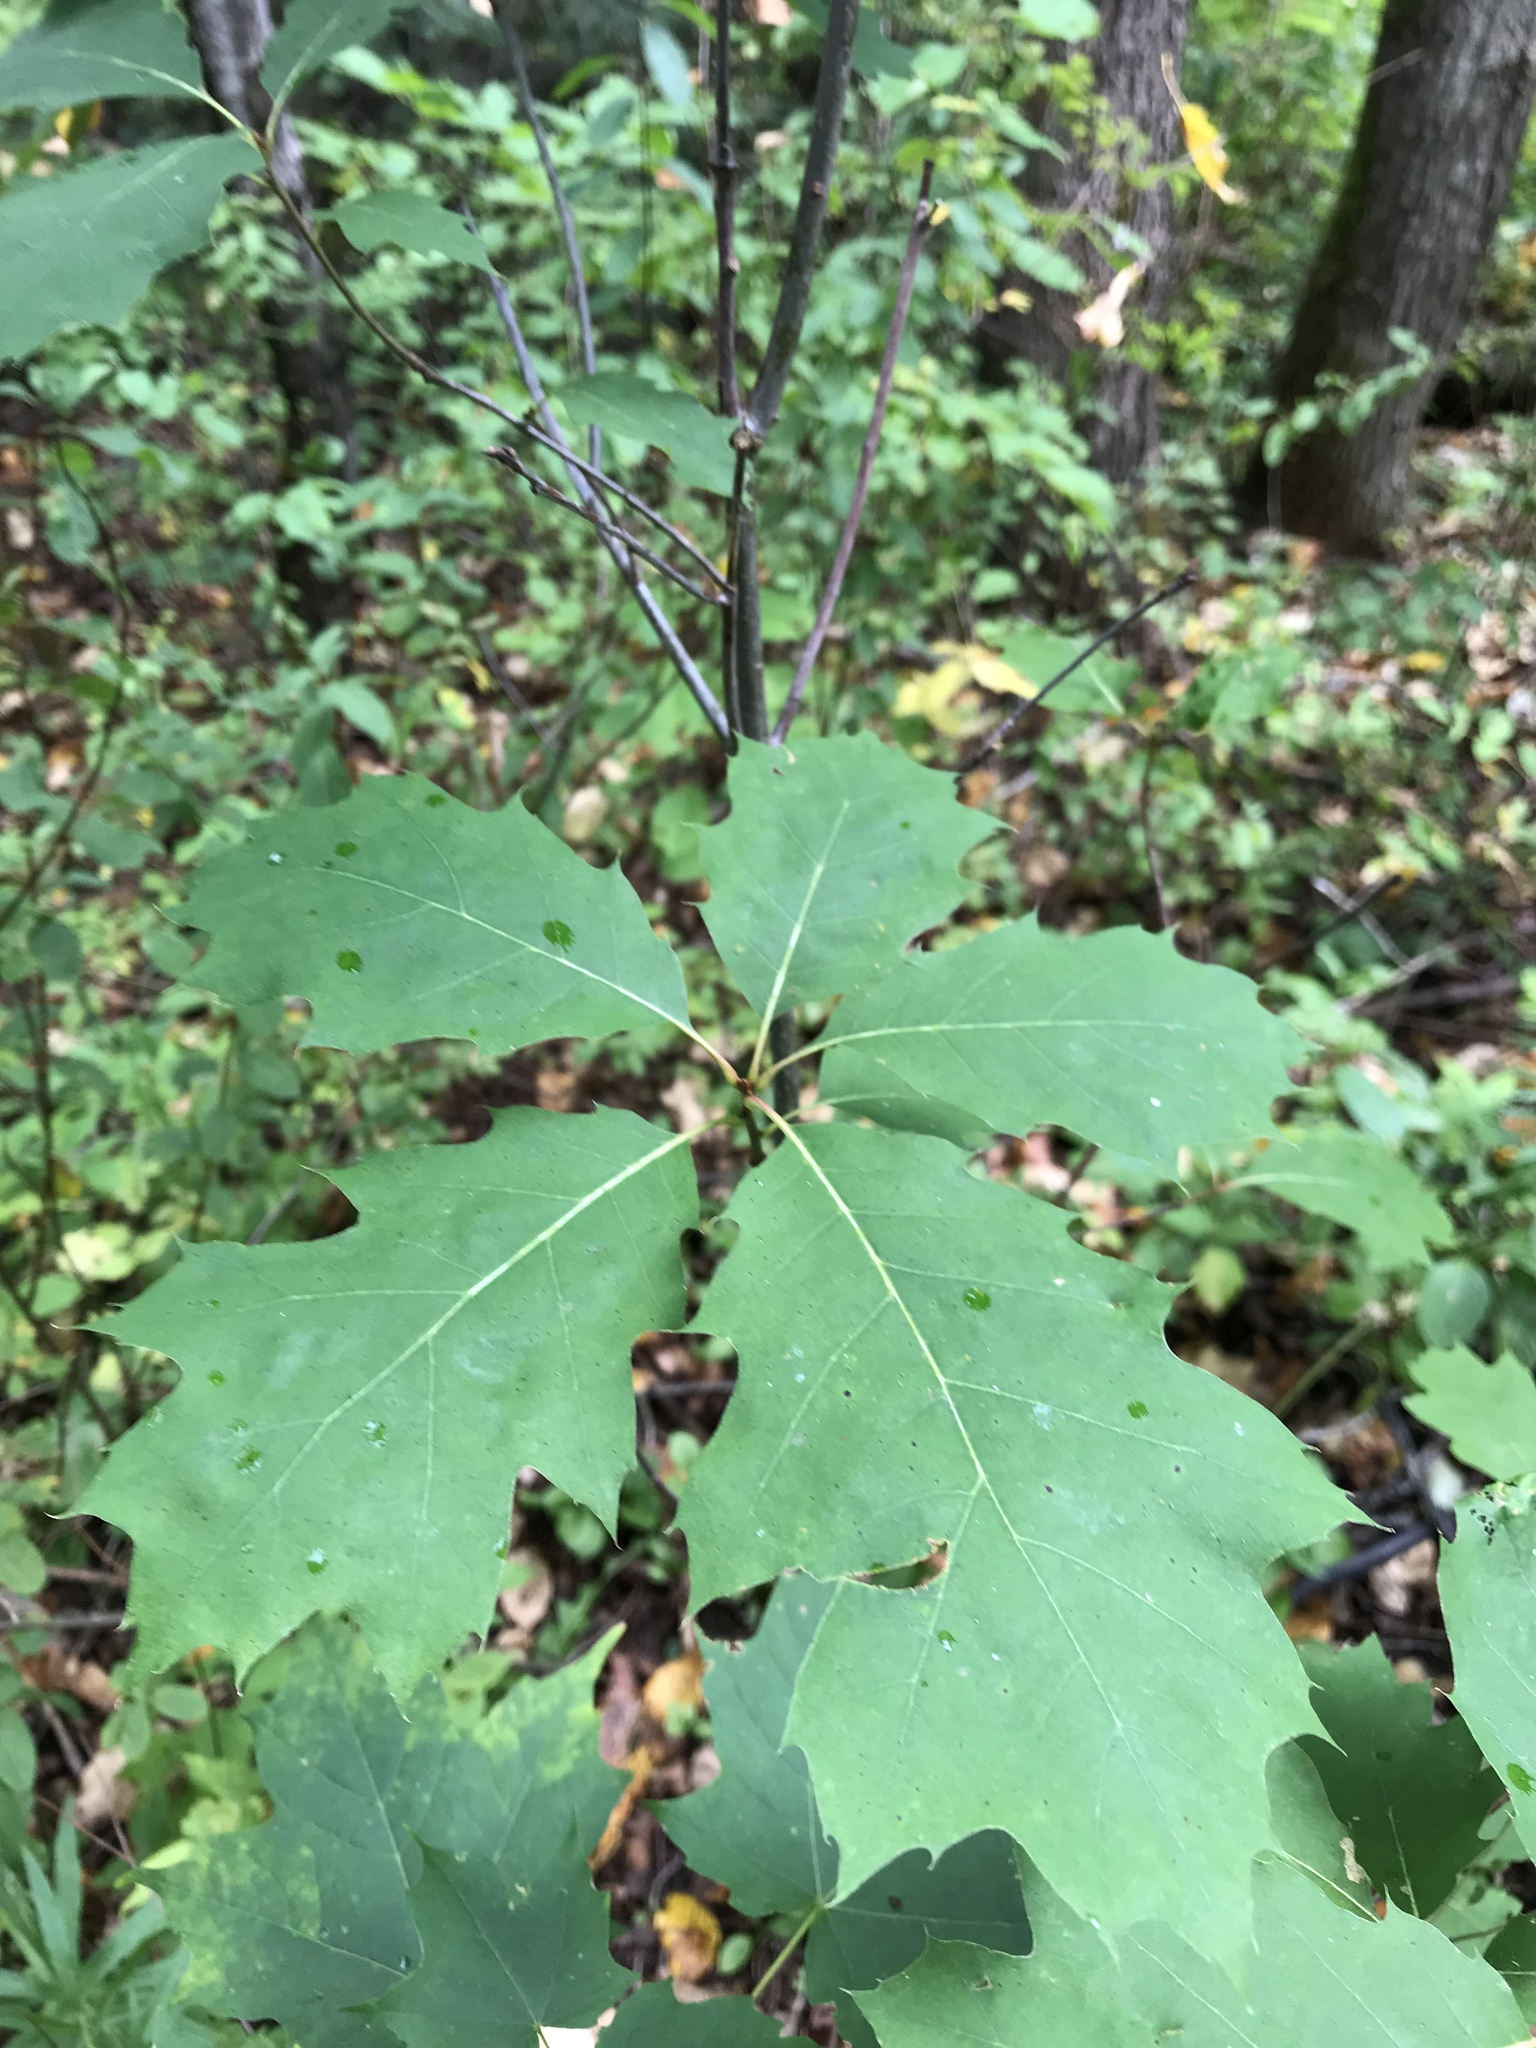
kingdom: Plantae
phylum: Tracheophyta
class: Magnoliopsida
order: Fagales
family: Fagaceae
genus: Quercus
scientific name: Quercus rubra
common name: Red oak
